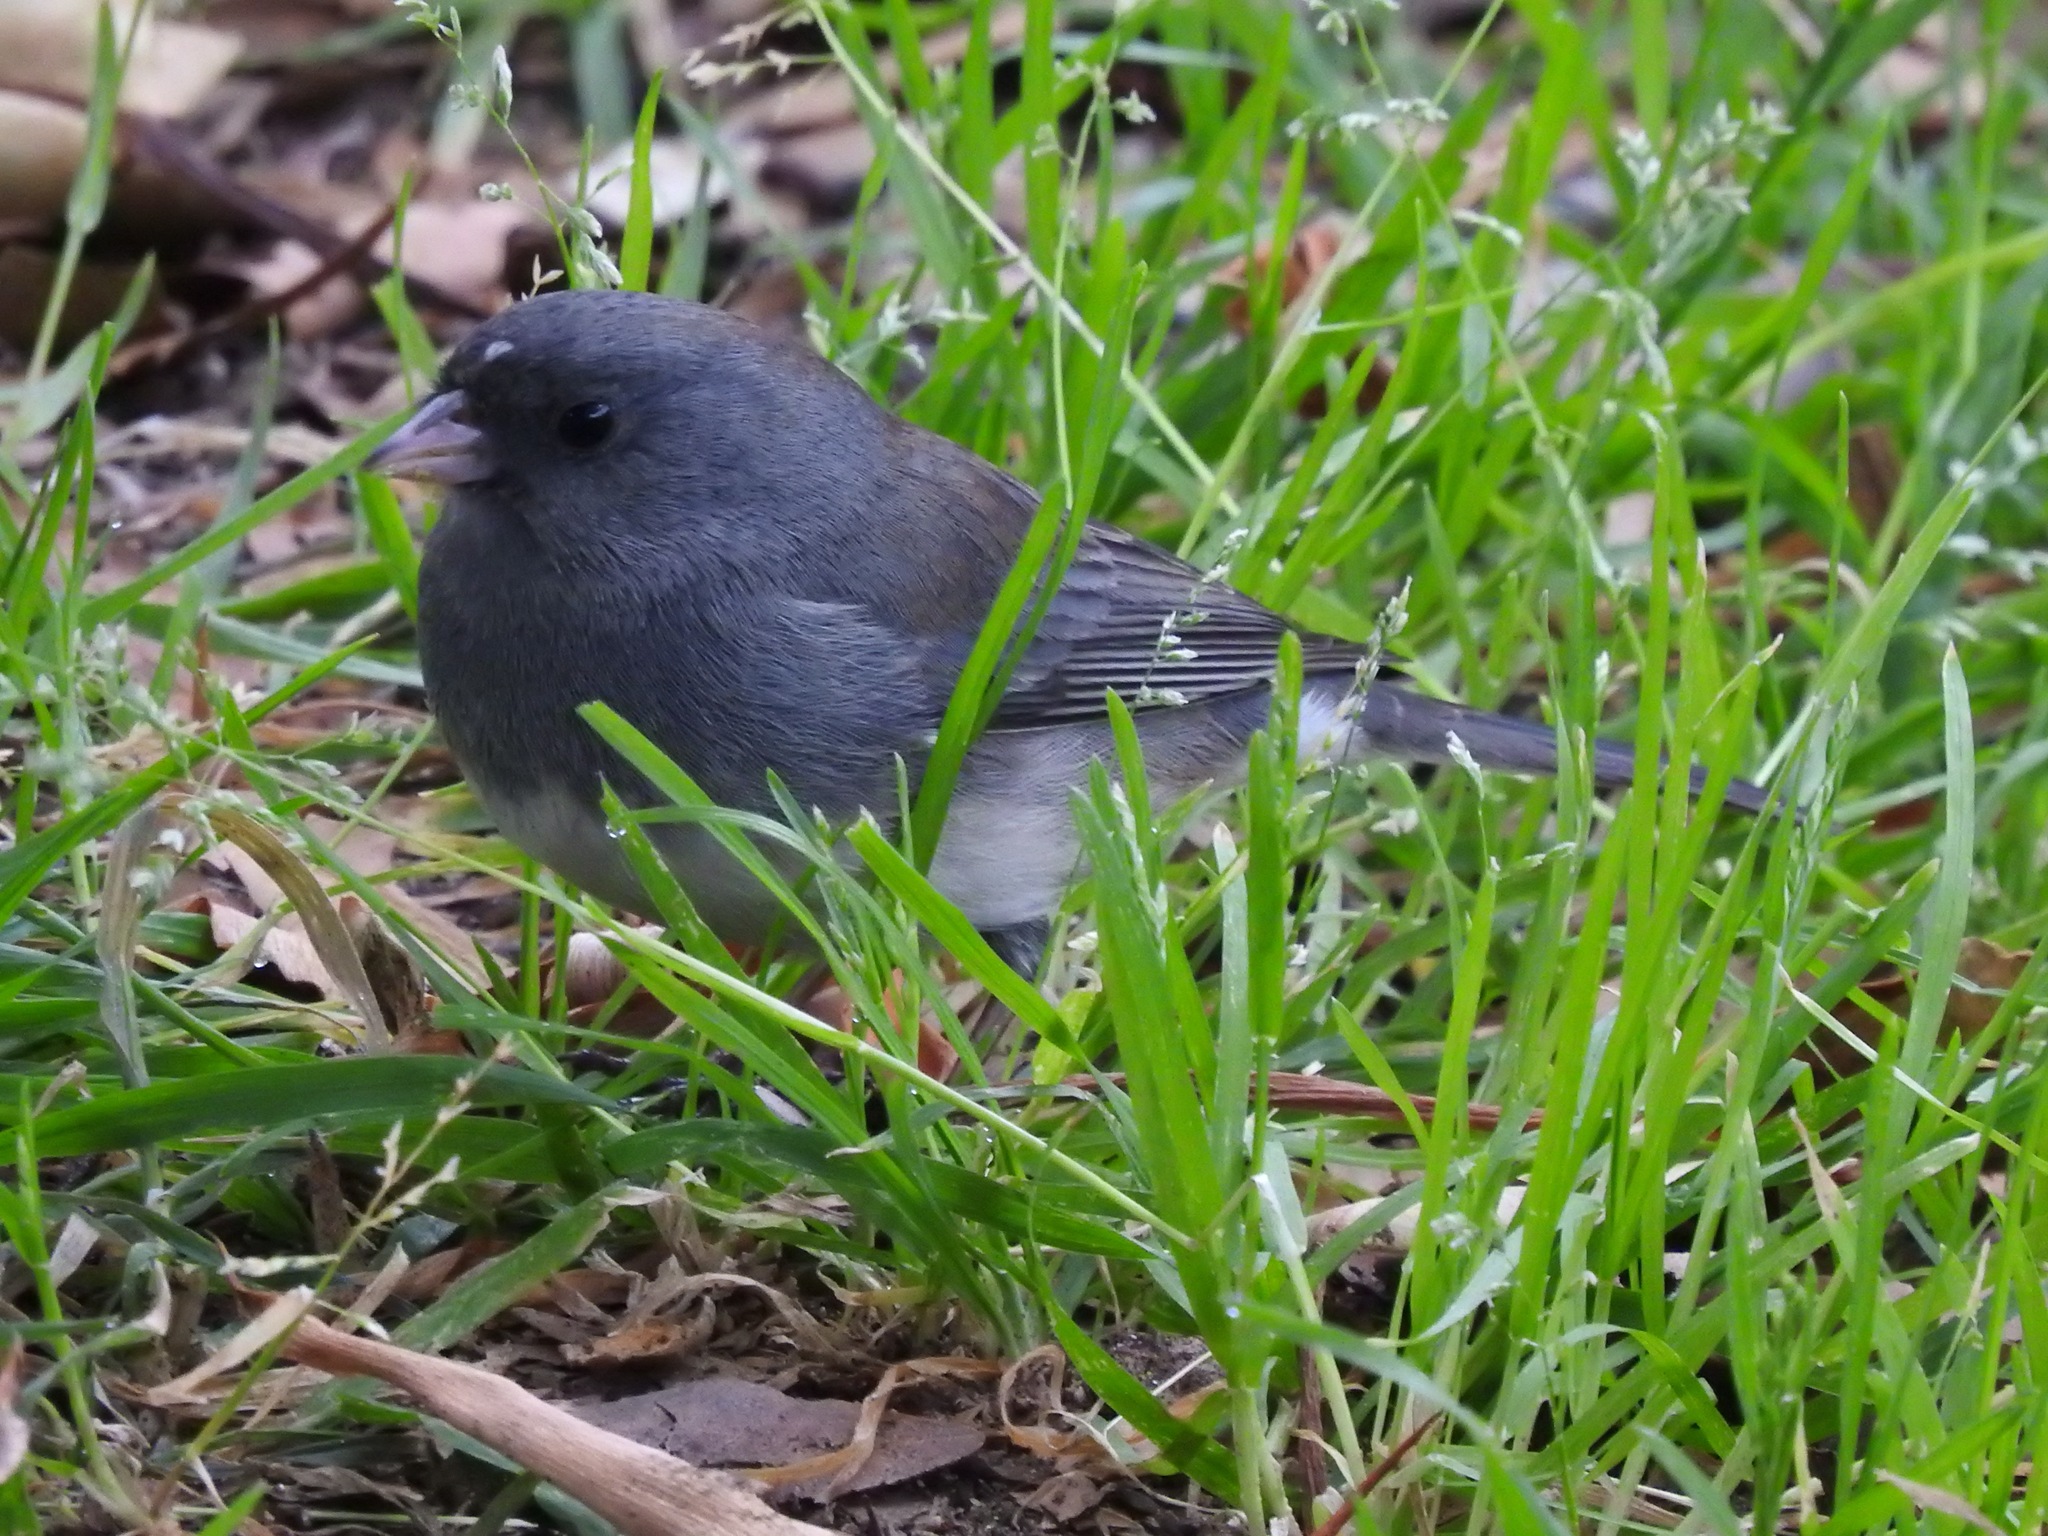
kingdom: Animalia
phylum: Chordata
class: Aves
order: Passeriformes
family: Passerellidae
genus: Junco
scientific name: Junco hyemalis
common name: Dark-eyed junco
